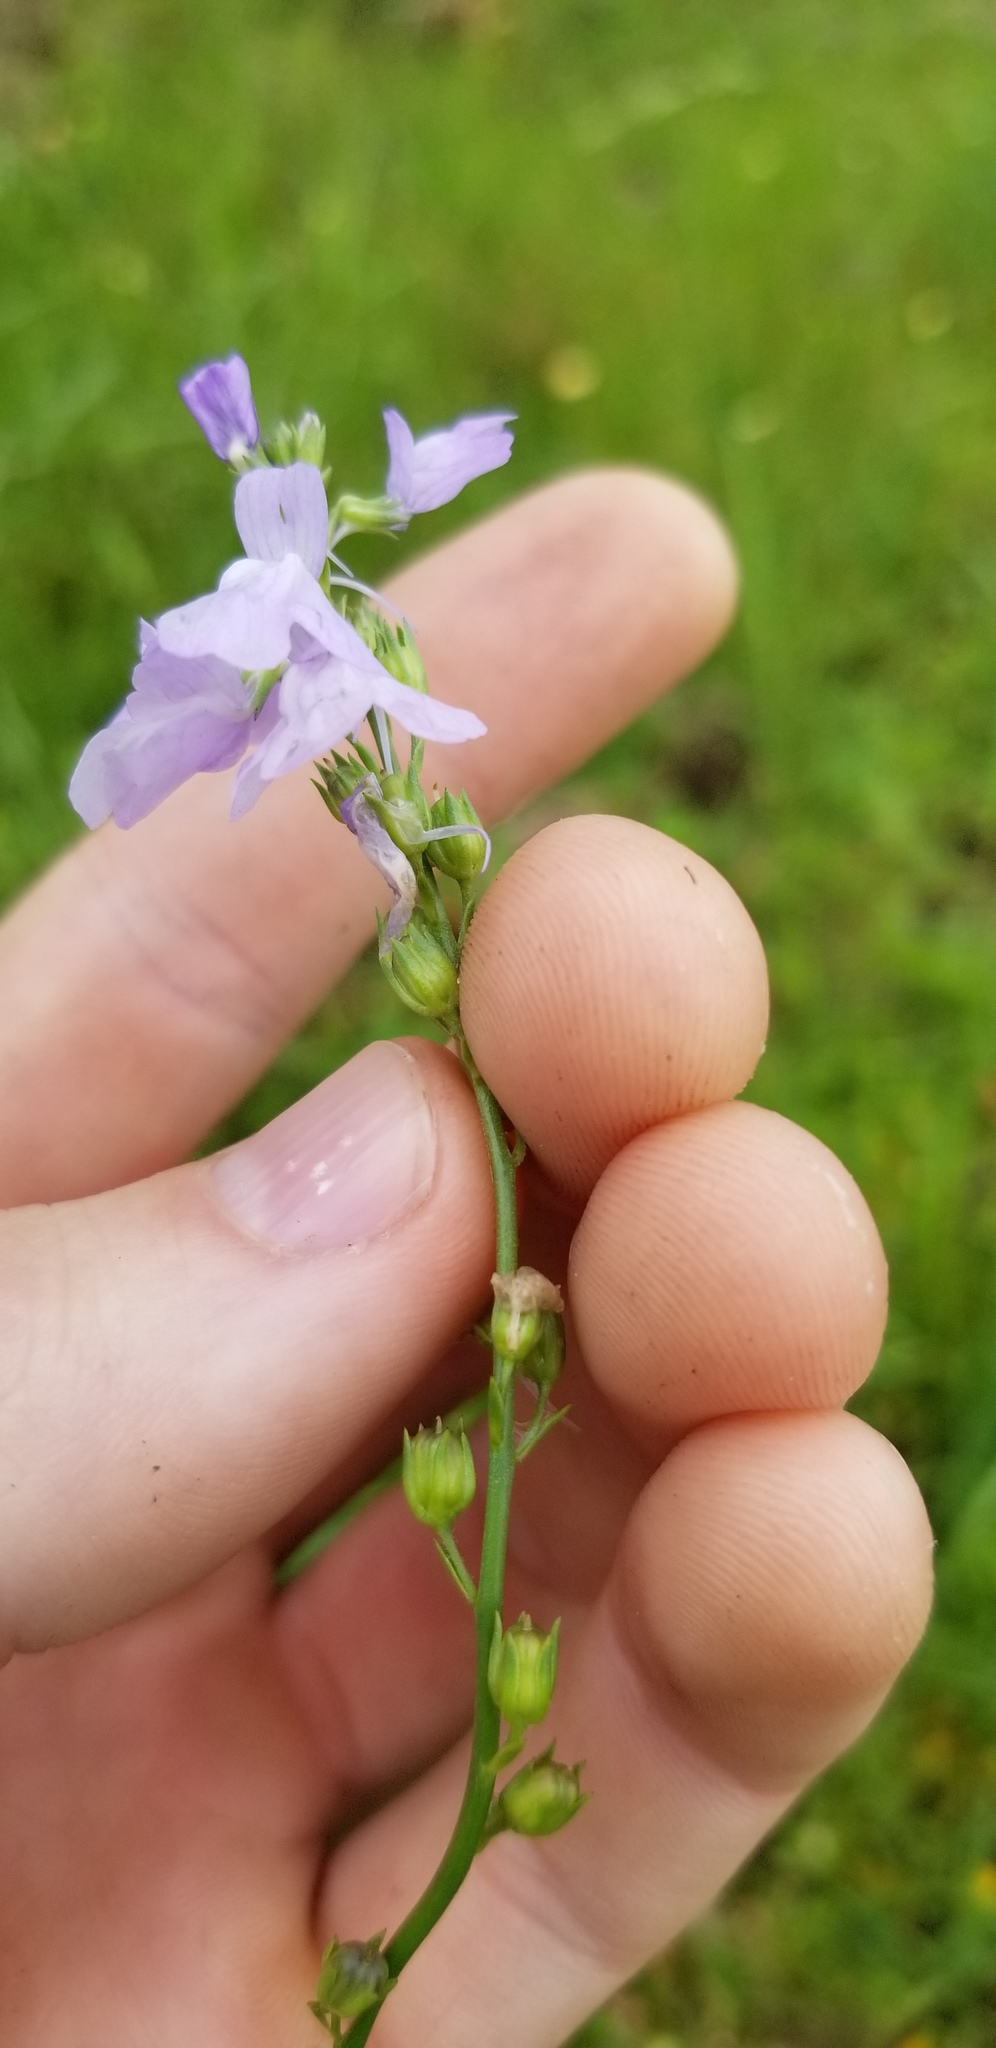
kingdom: Plantae
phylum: Tracheophyta
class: Magnoliopsida
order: Lamiales
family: Plantaginaceae
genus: Nuttallanthus
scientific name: Nuttallanthus texanus
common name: Texas toadflax
